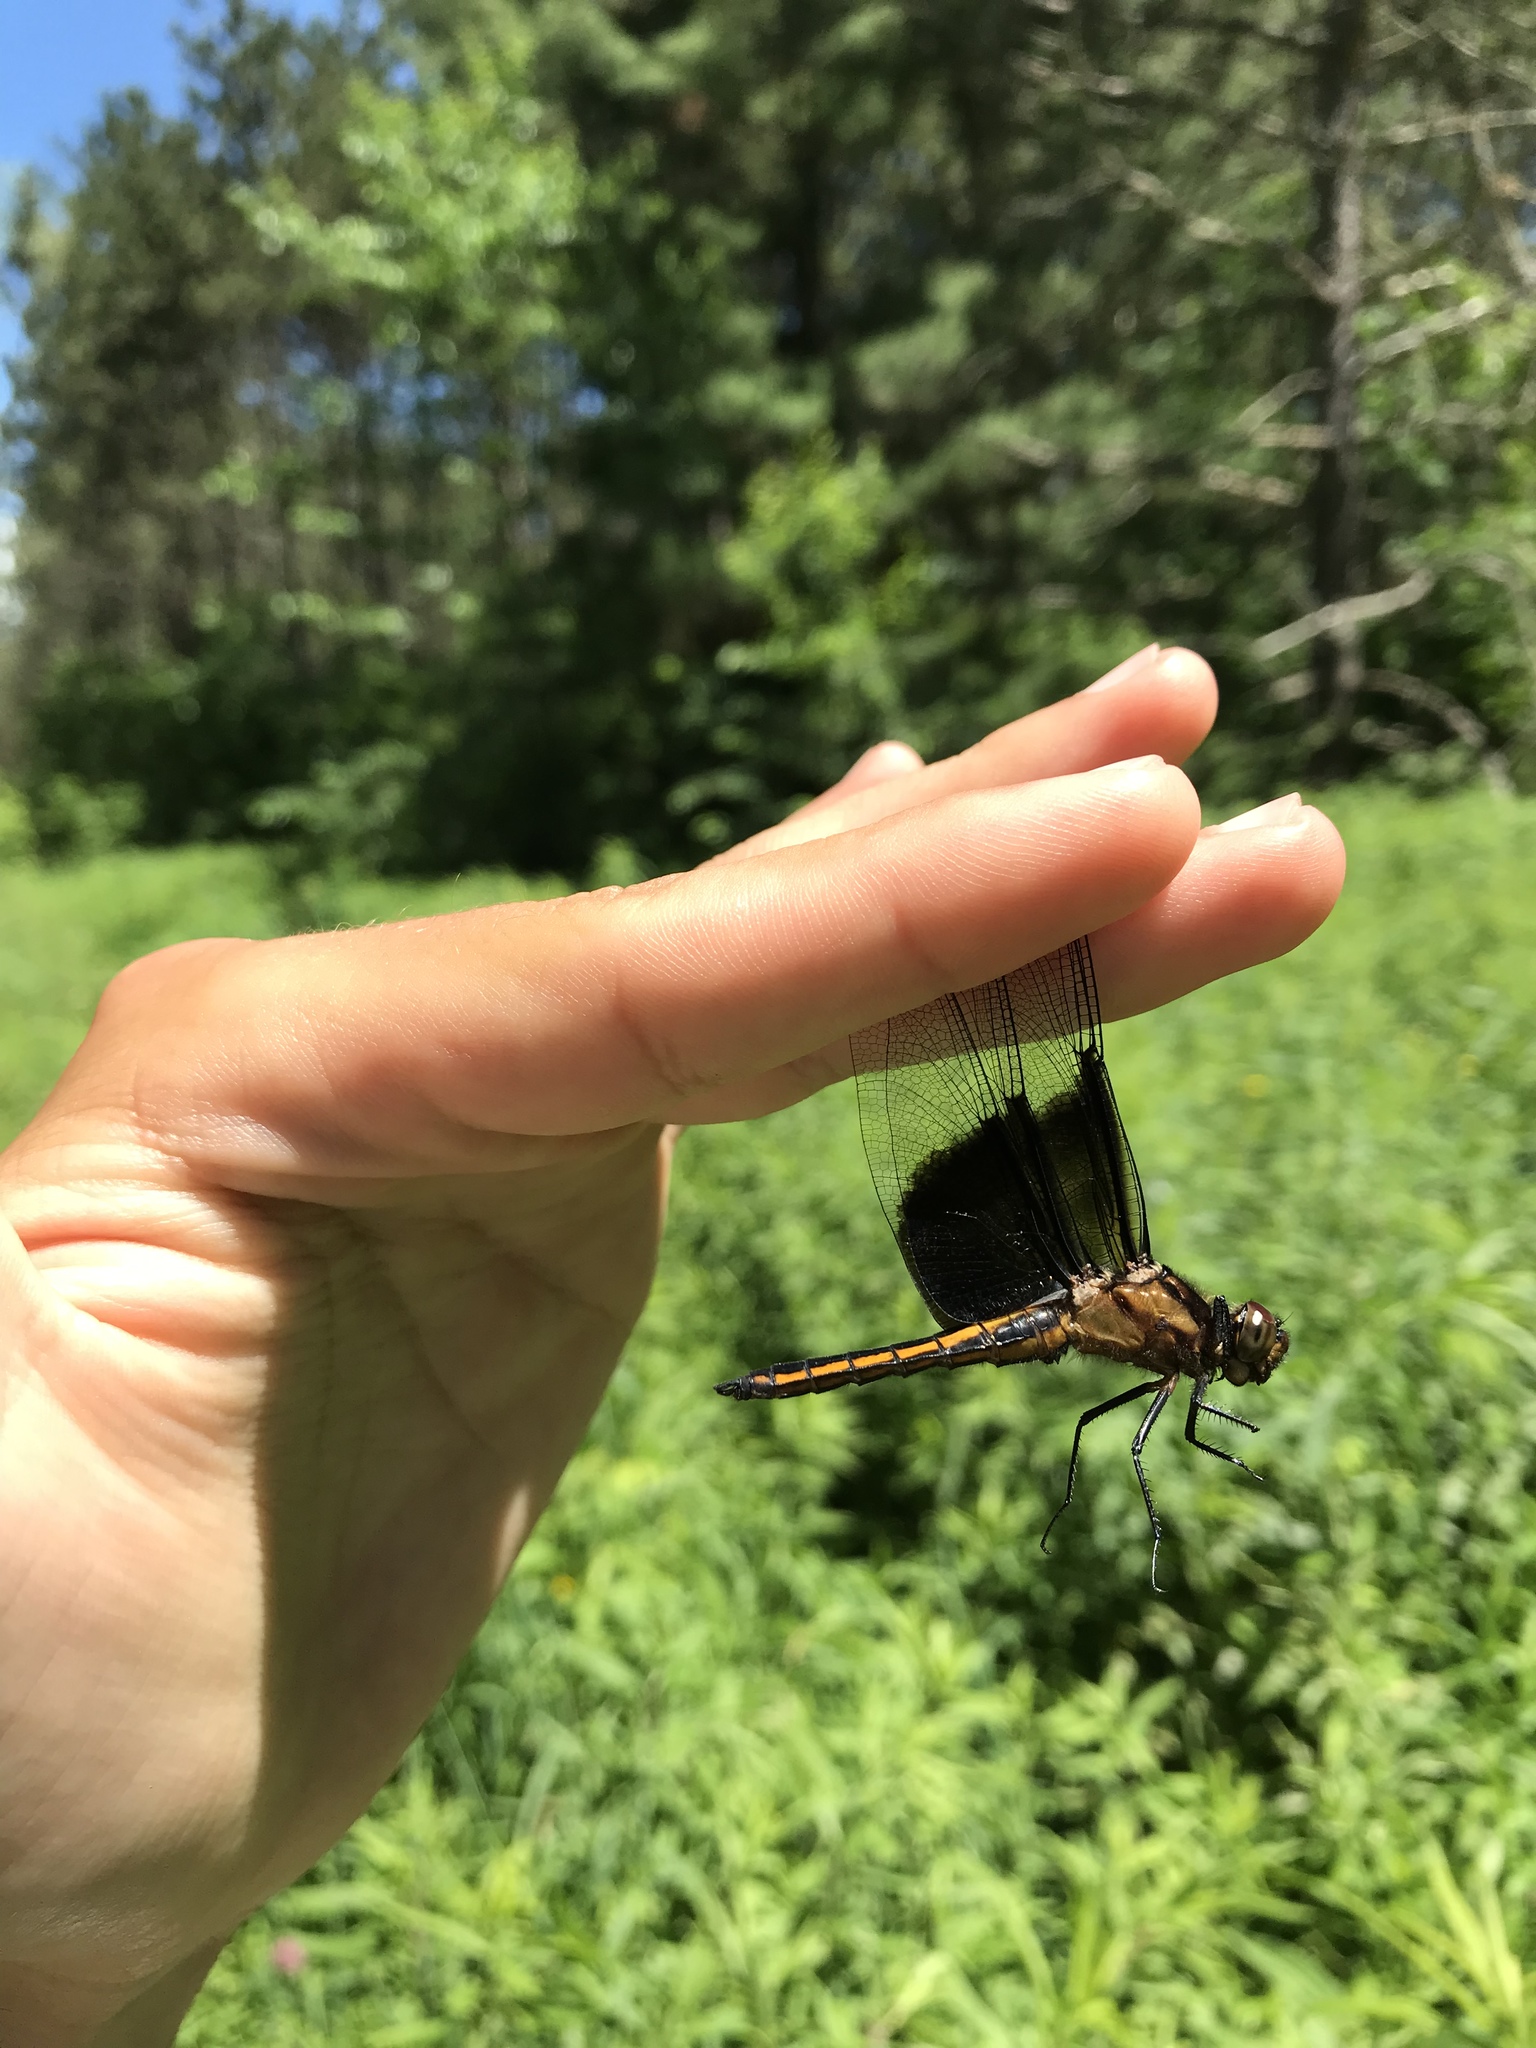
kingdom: Animalia
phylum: Arthropoda
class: Insecta
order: Odonata
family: Libellulidae
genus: Libellula
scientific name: Libellula luctuosa
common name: Widow skimmer
